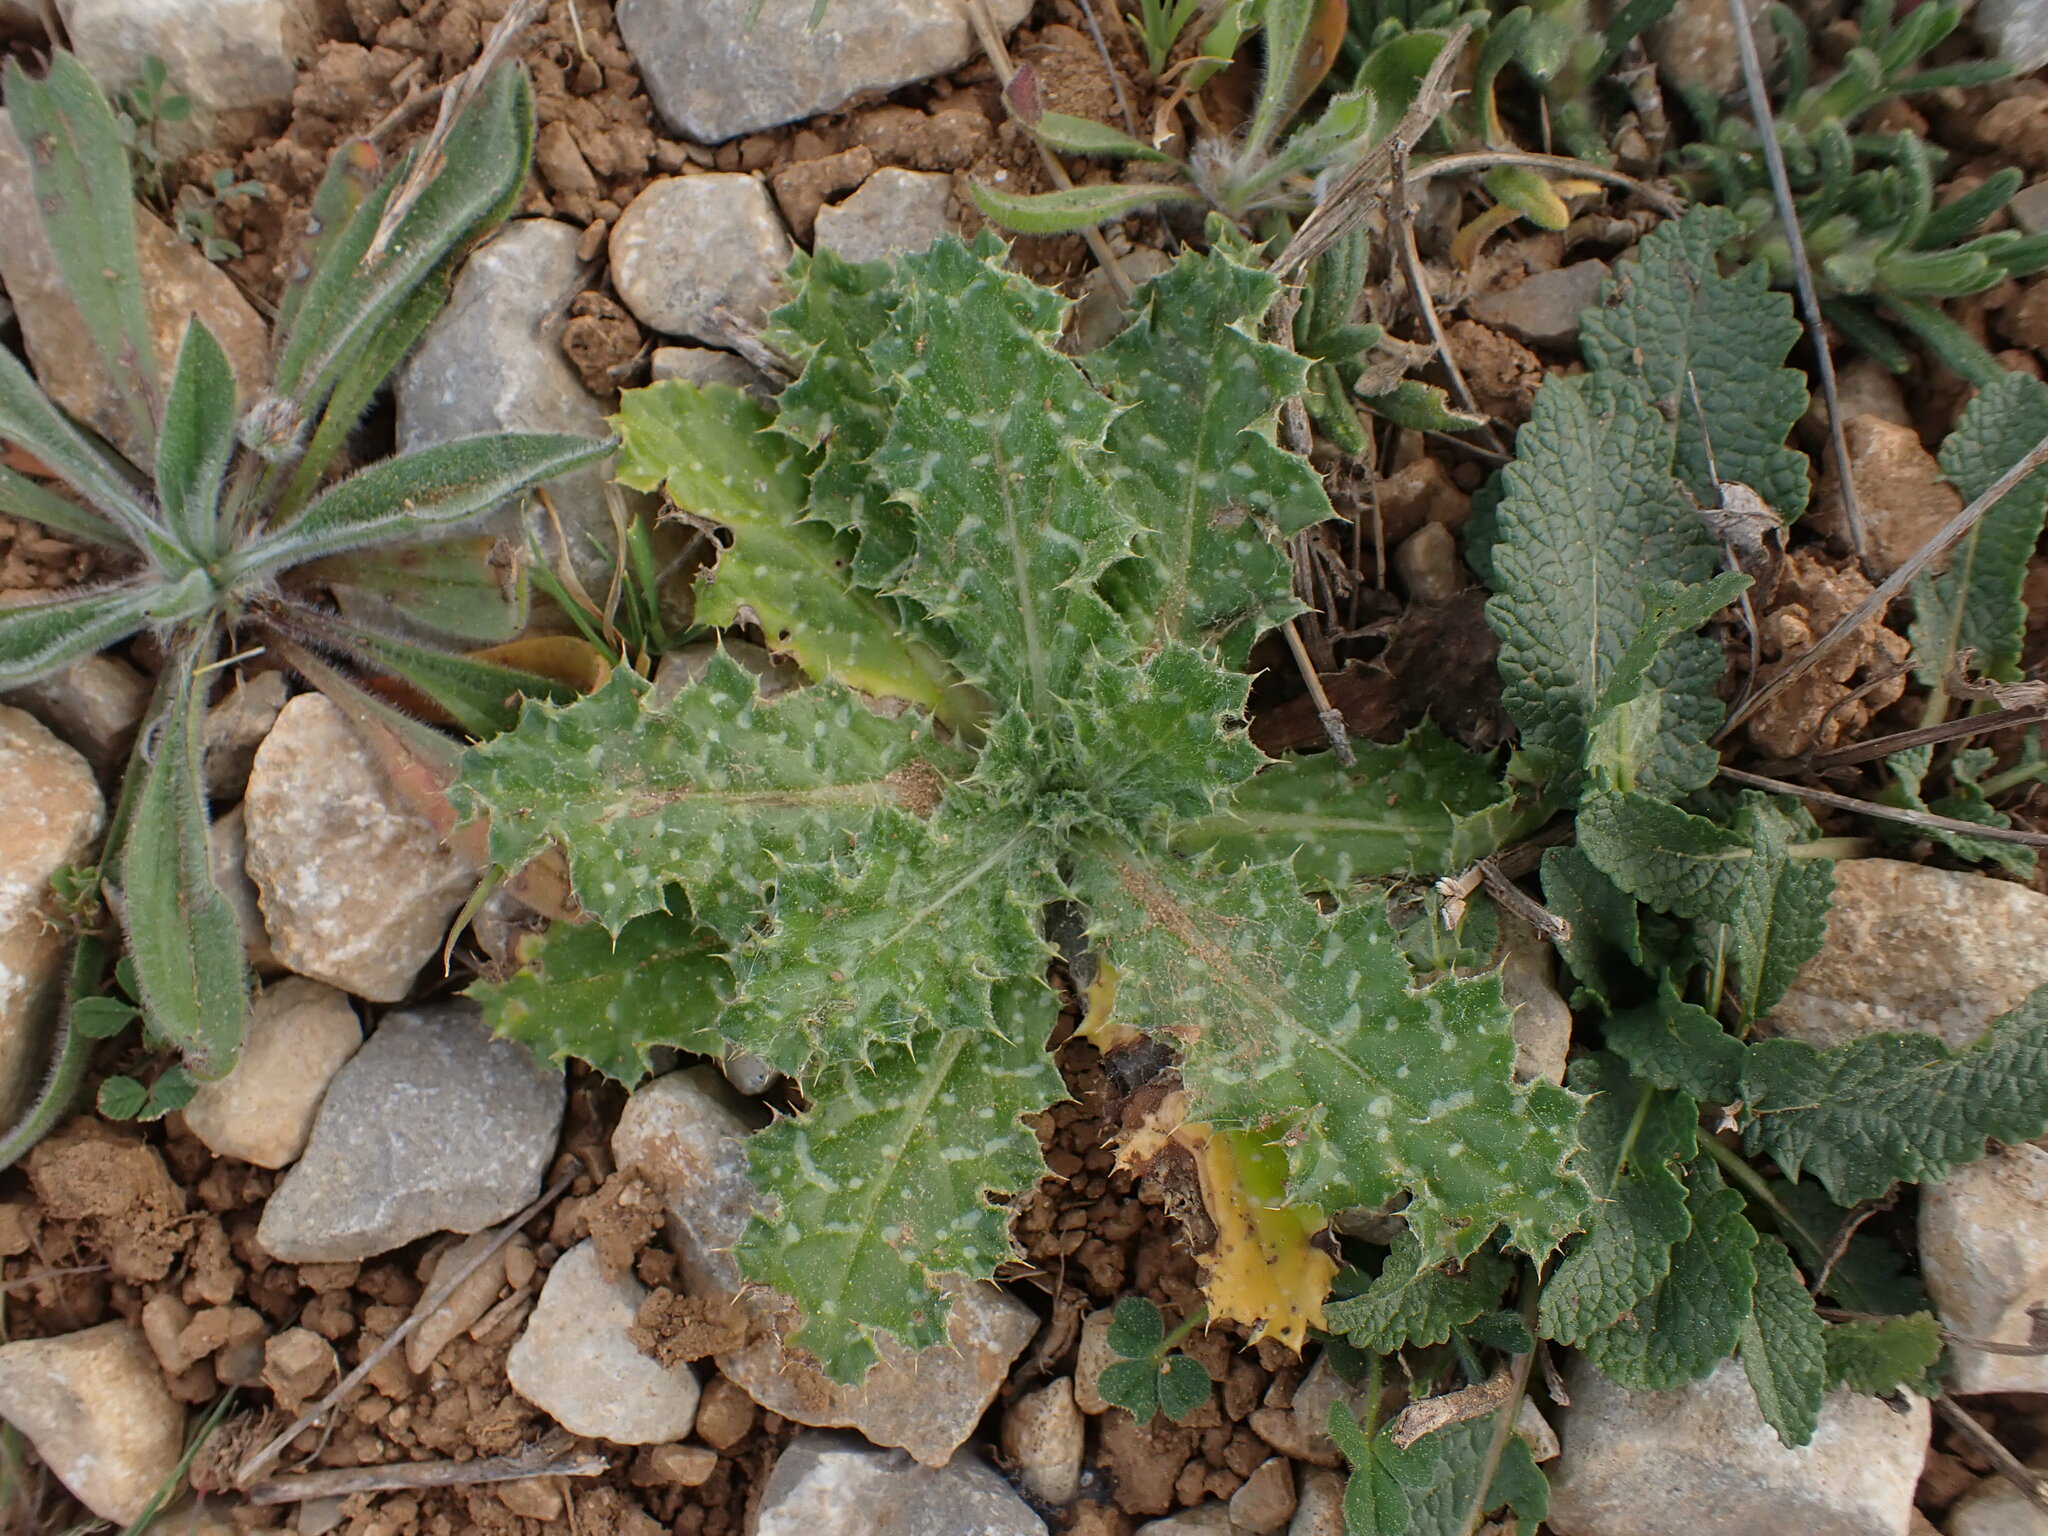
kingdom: Plantae
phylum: Tracheophyta
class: Magnoliopsida
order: Asterales
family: Asteraceae
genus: Tyrimnus
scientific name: Tyrimnus leucographus
